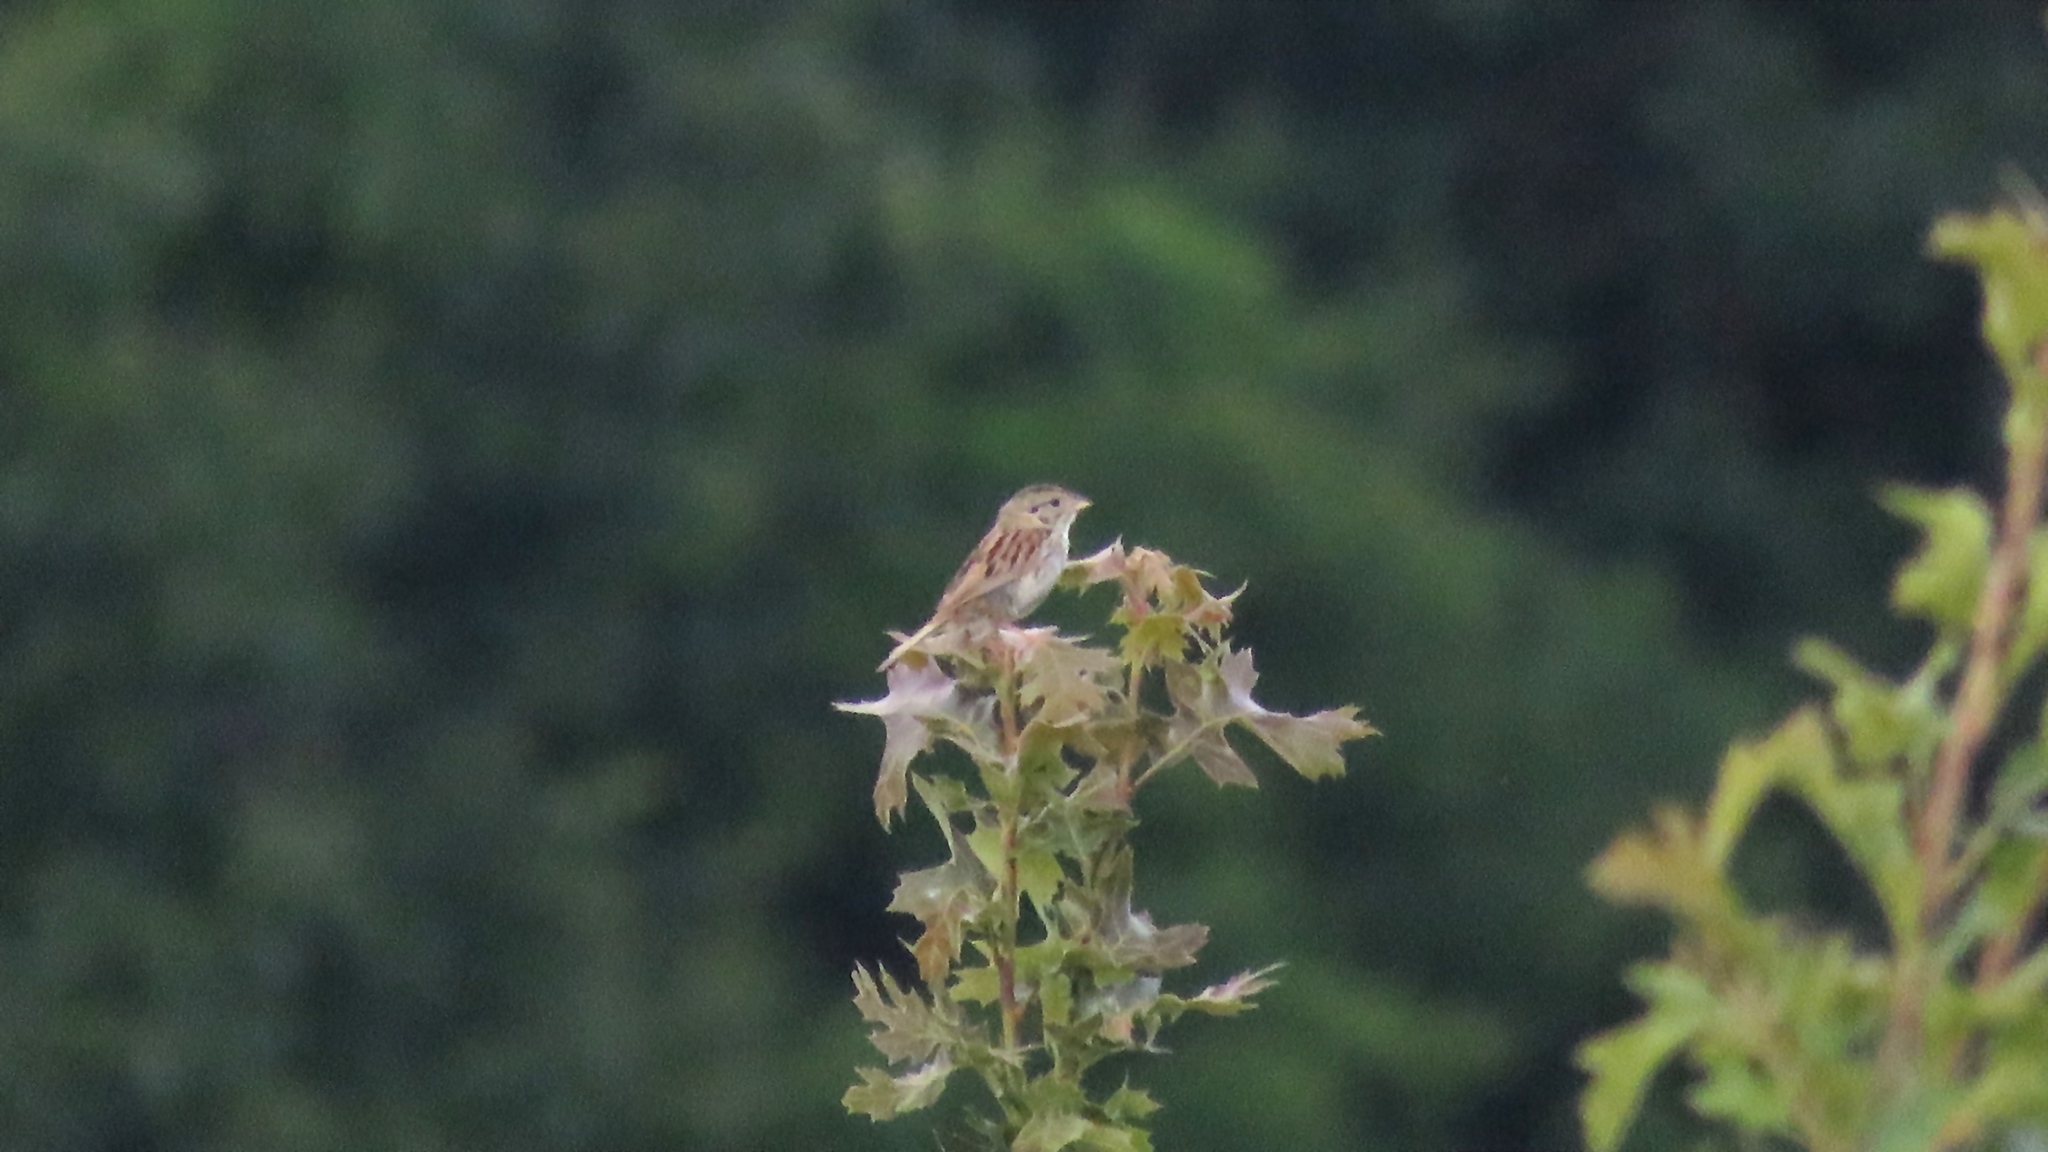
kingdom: Animalia
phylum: Chordata
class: Aves
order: Passeriformes
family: Passerellidae
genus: Centronyx
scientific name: Centronyx henslowii
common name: Henslow's sparrow
